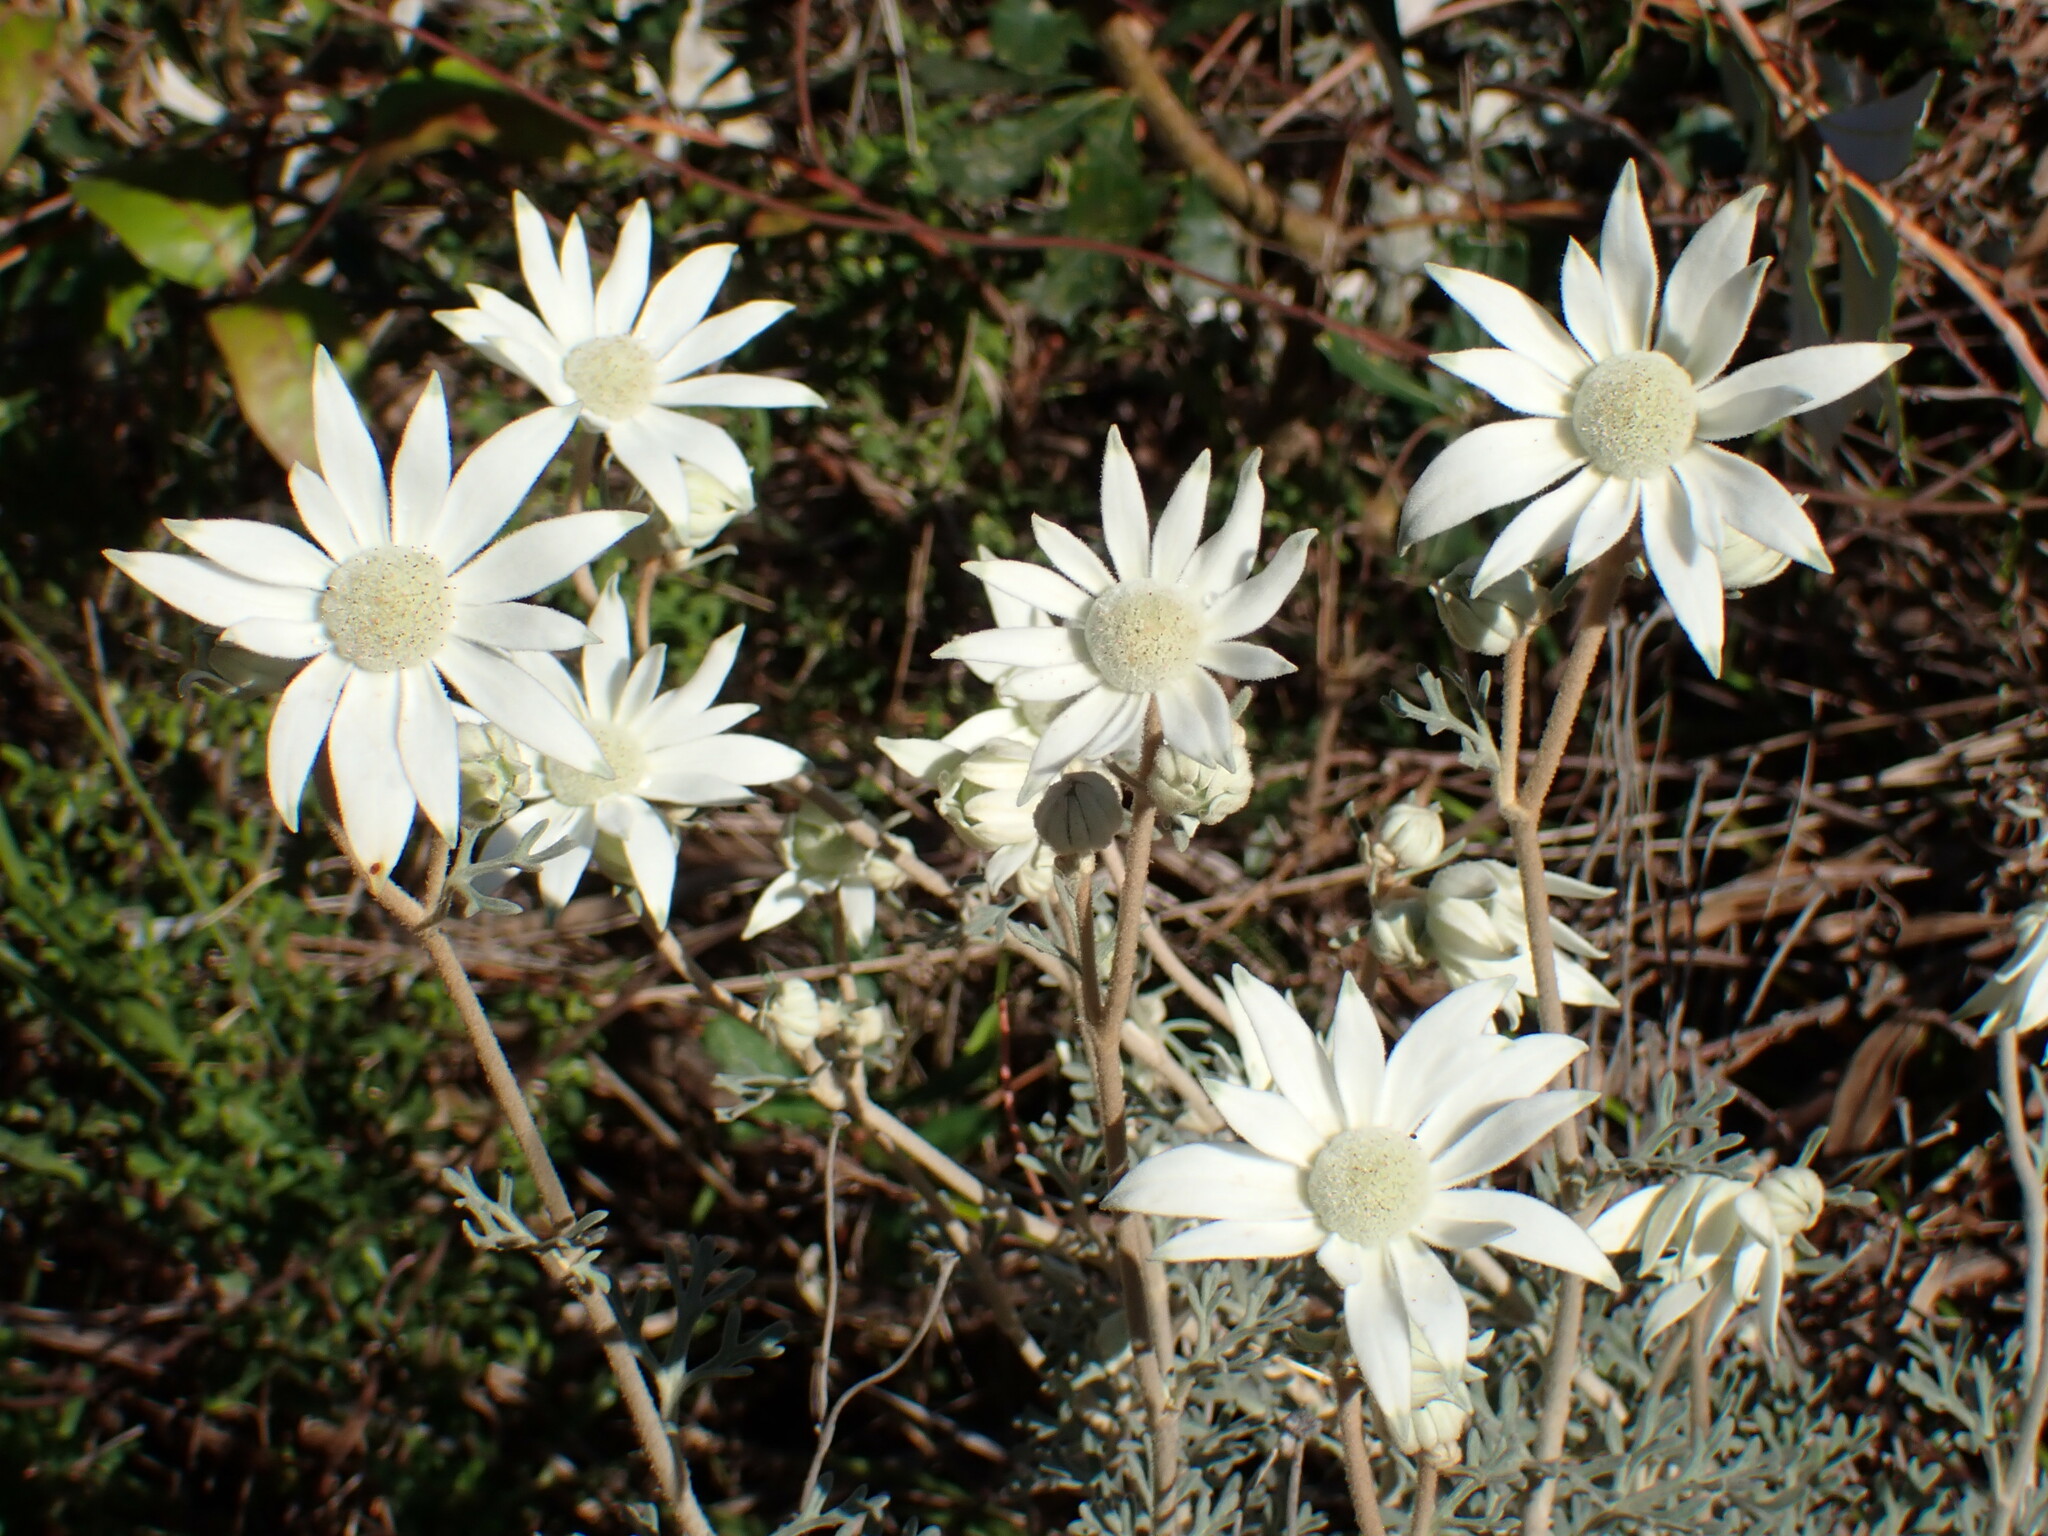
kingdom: Plantae
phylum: Tracheophyta
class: Magnoliopsida
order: Apiales
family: Apiaceae
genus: Actinotus
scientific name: Actinotus helianthi
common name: Flannel-flower
